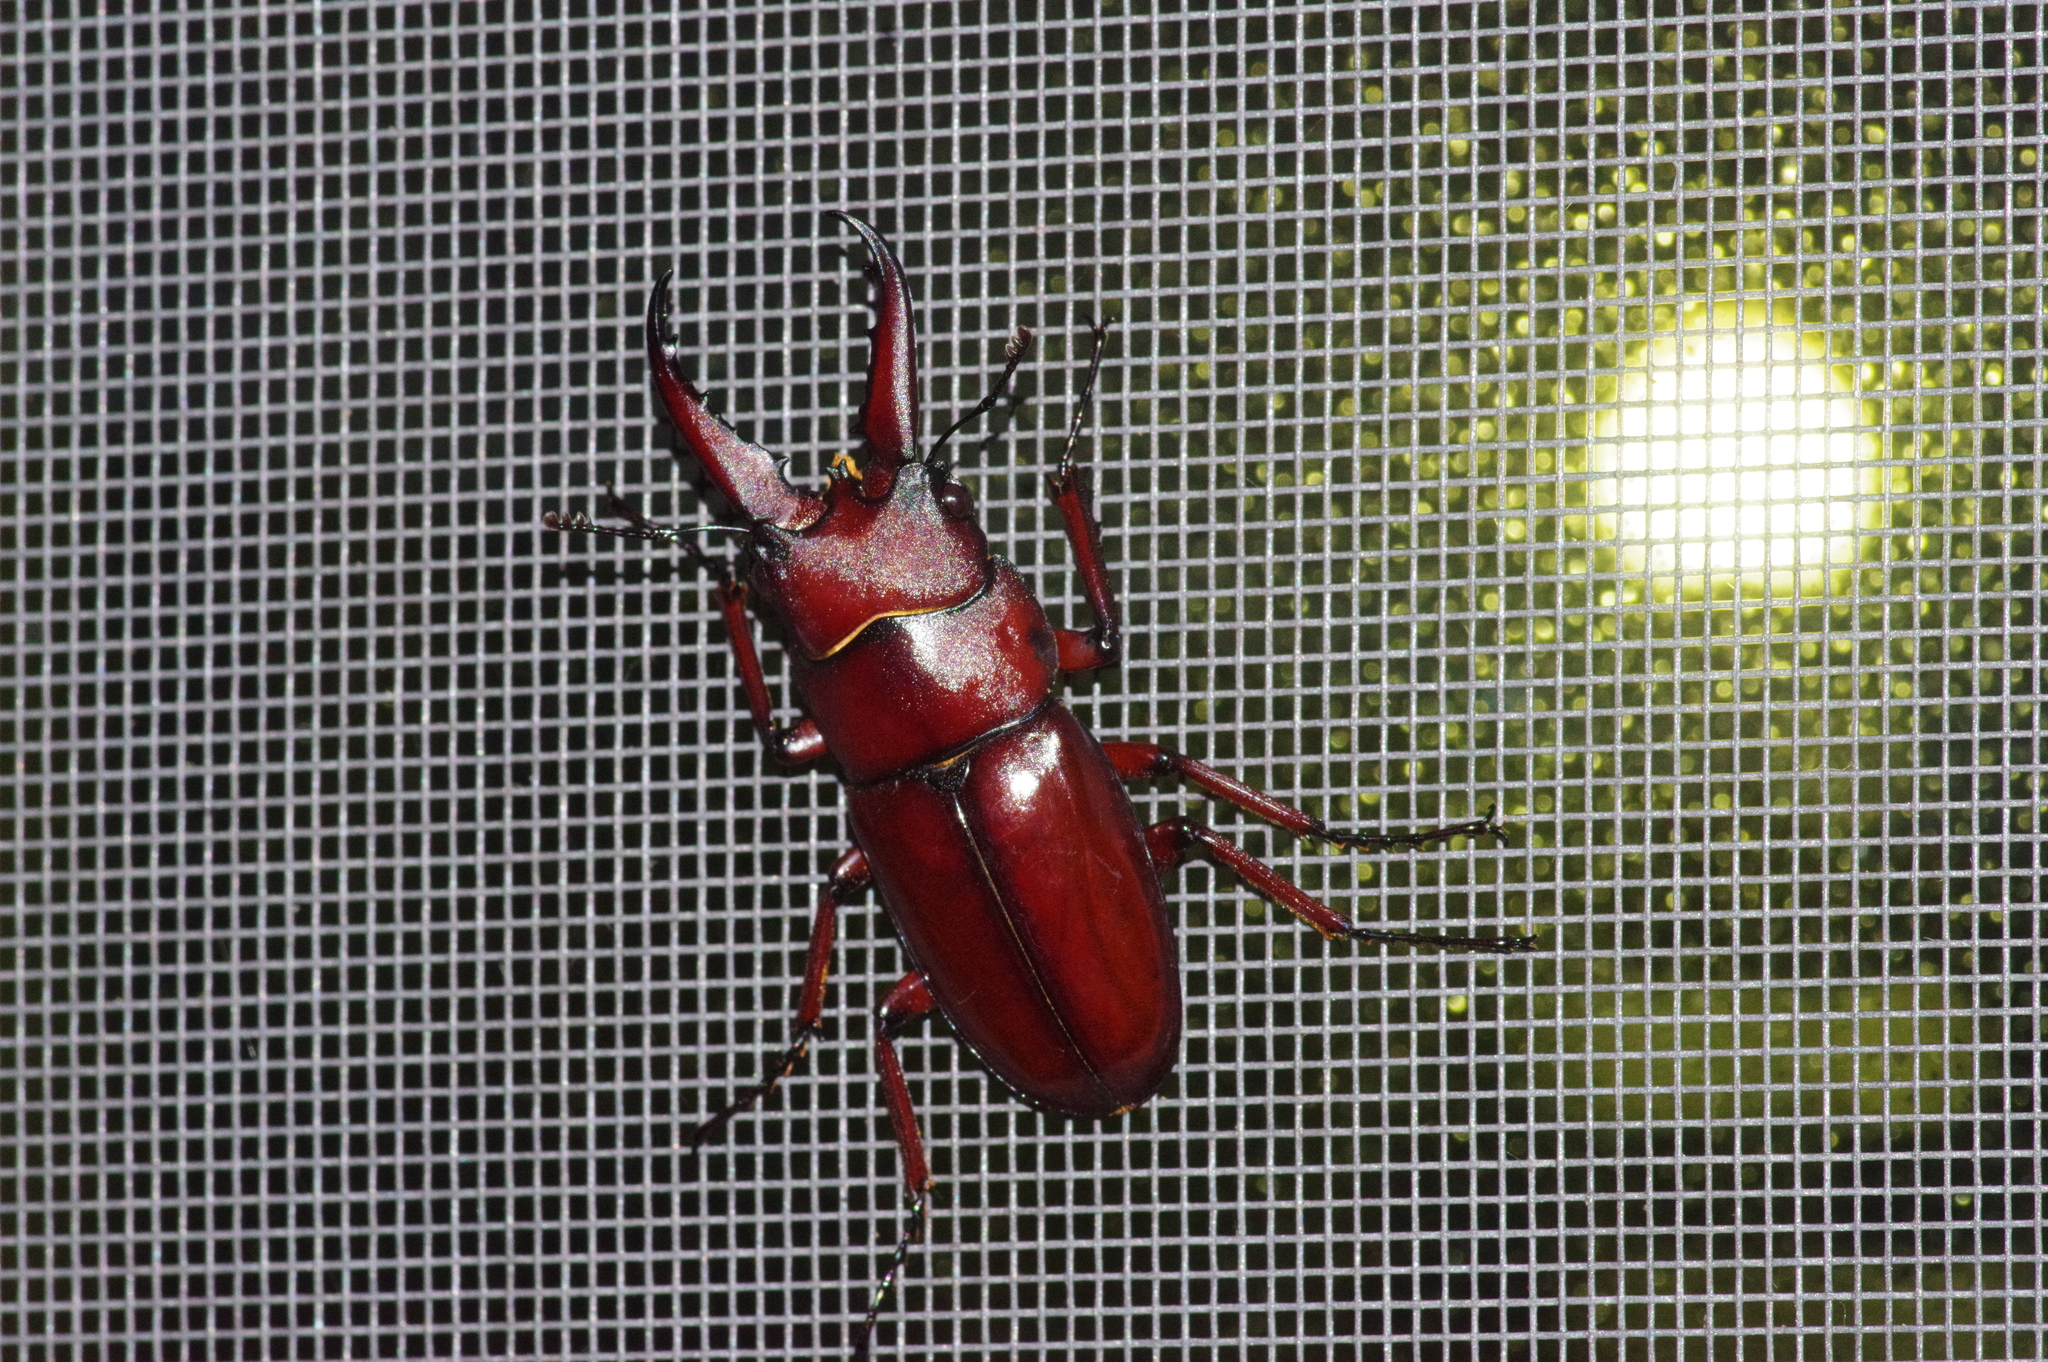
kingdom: Animalia
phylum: Arthropoda
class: Insecta
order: Coleoptera
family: Lucanidae
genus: Prosopocoilus
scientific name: Prosopocoilus dissimilis
